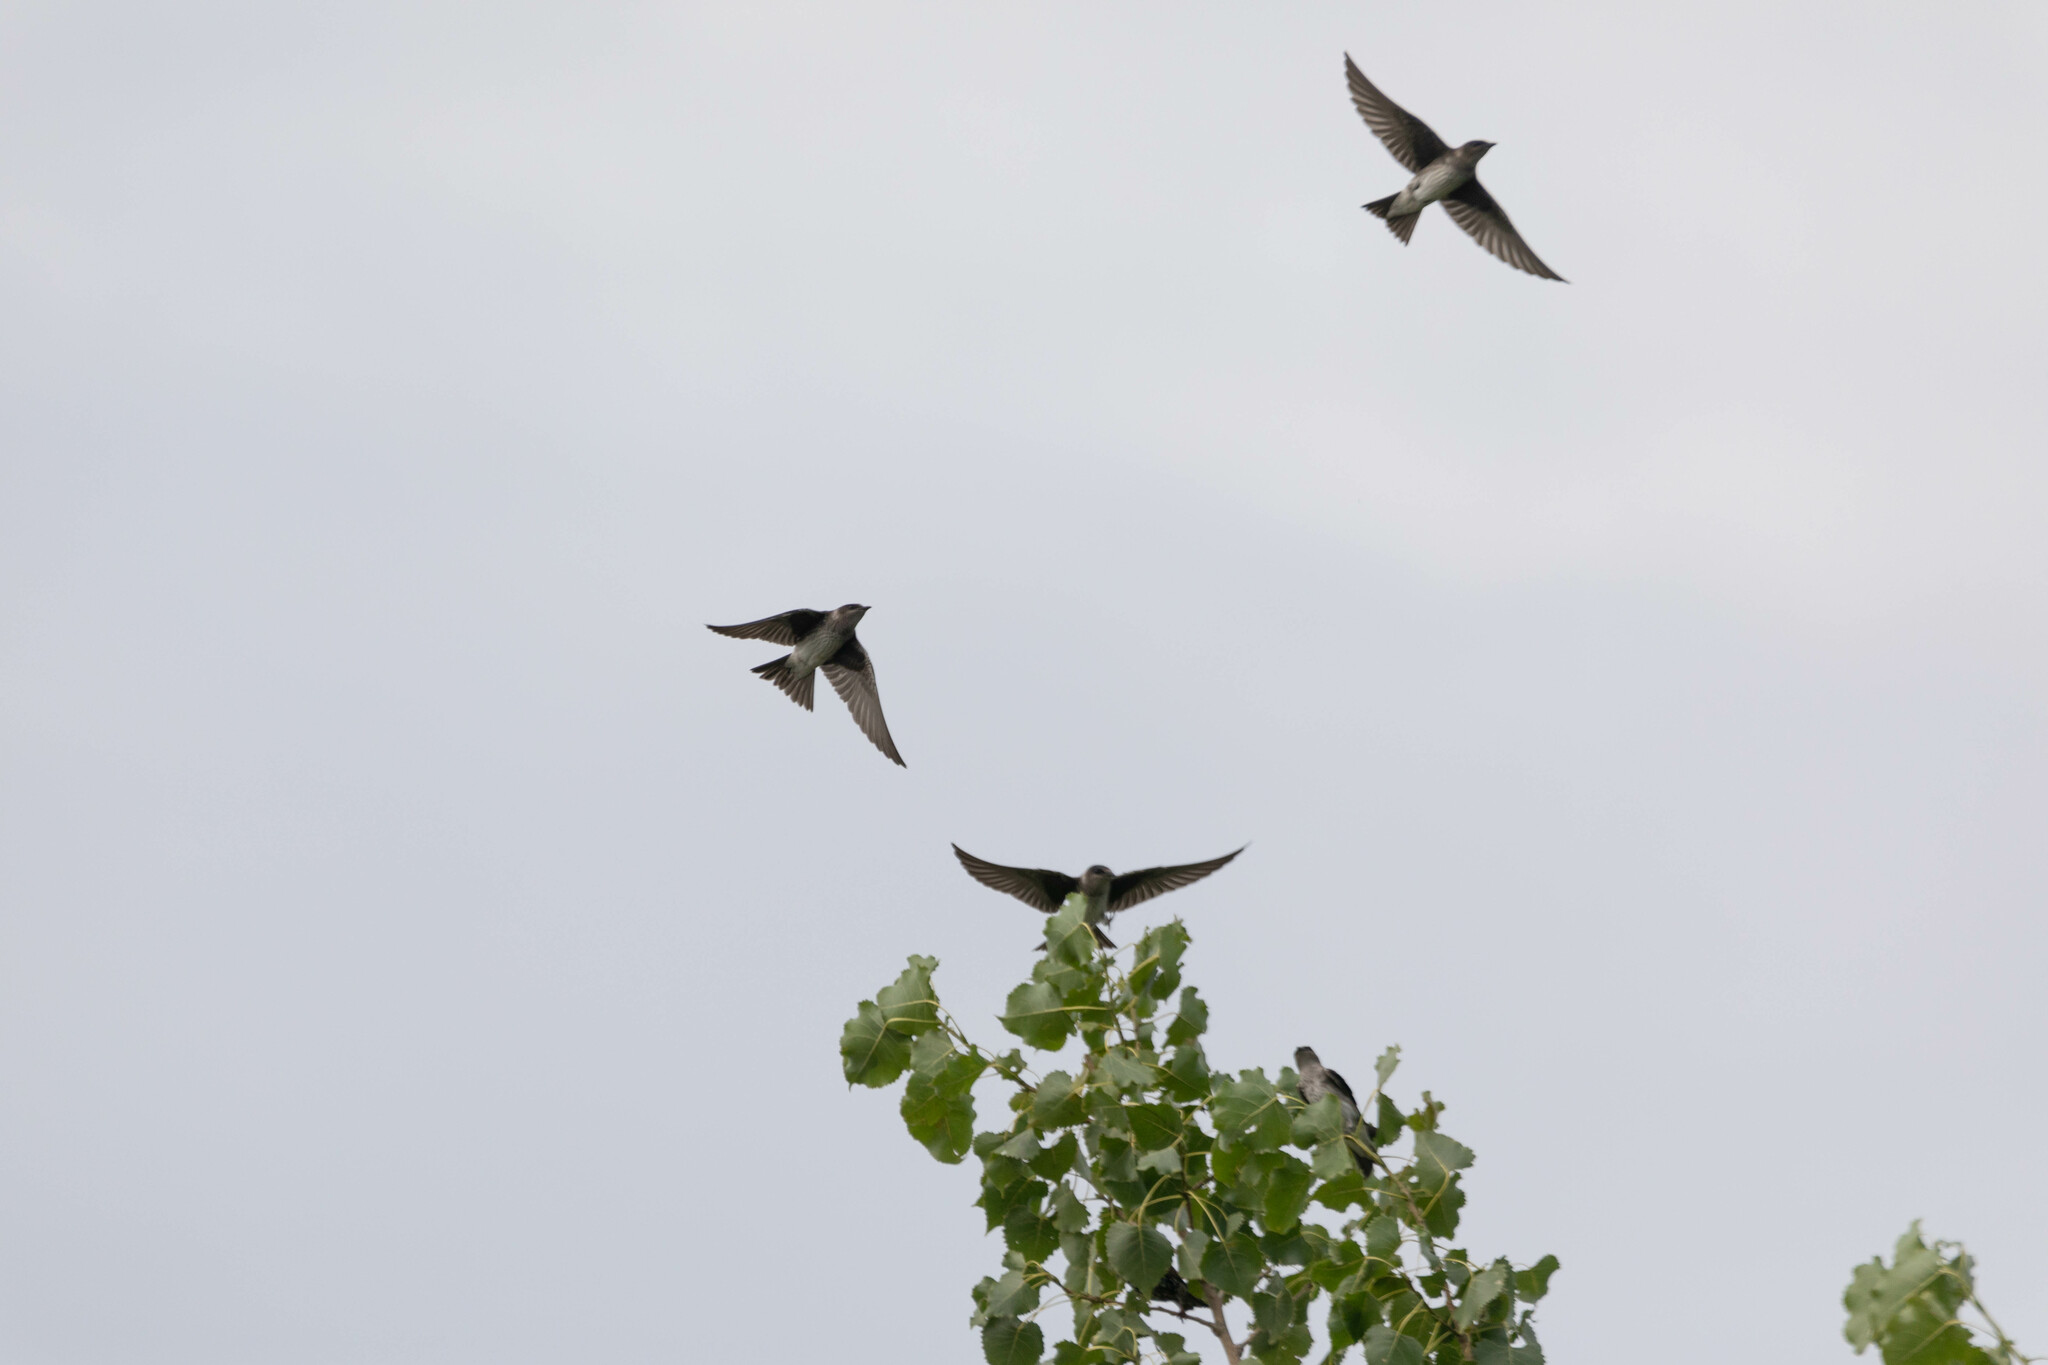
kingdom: Animalia
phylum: Chordata
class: Aves
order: Passeriformes
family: Hirundinidae
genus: Progne
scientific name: Progne subis
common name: Purple martin
